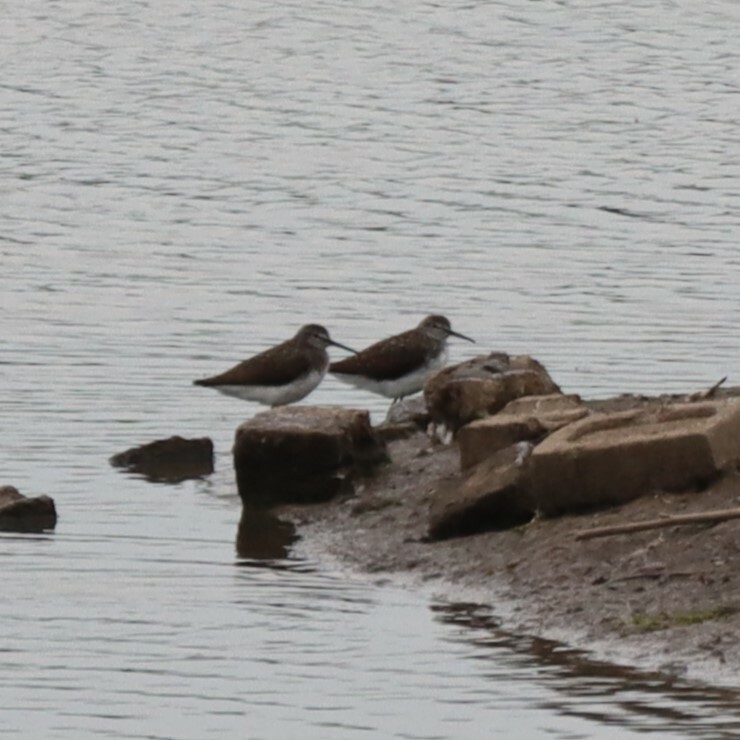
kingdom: Animalia
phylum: Chordata
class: Aves
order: Charadriiformes
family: Scolopacidae
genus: Tringa
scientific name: Tringa ochropus
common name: Green sandpiper
